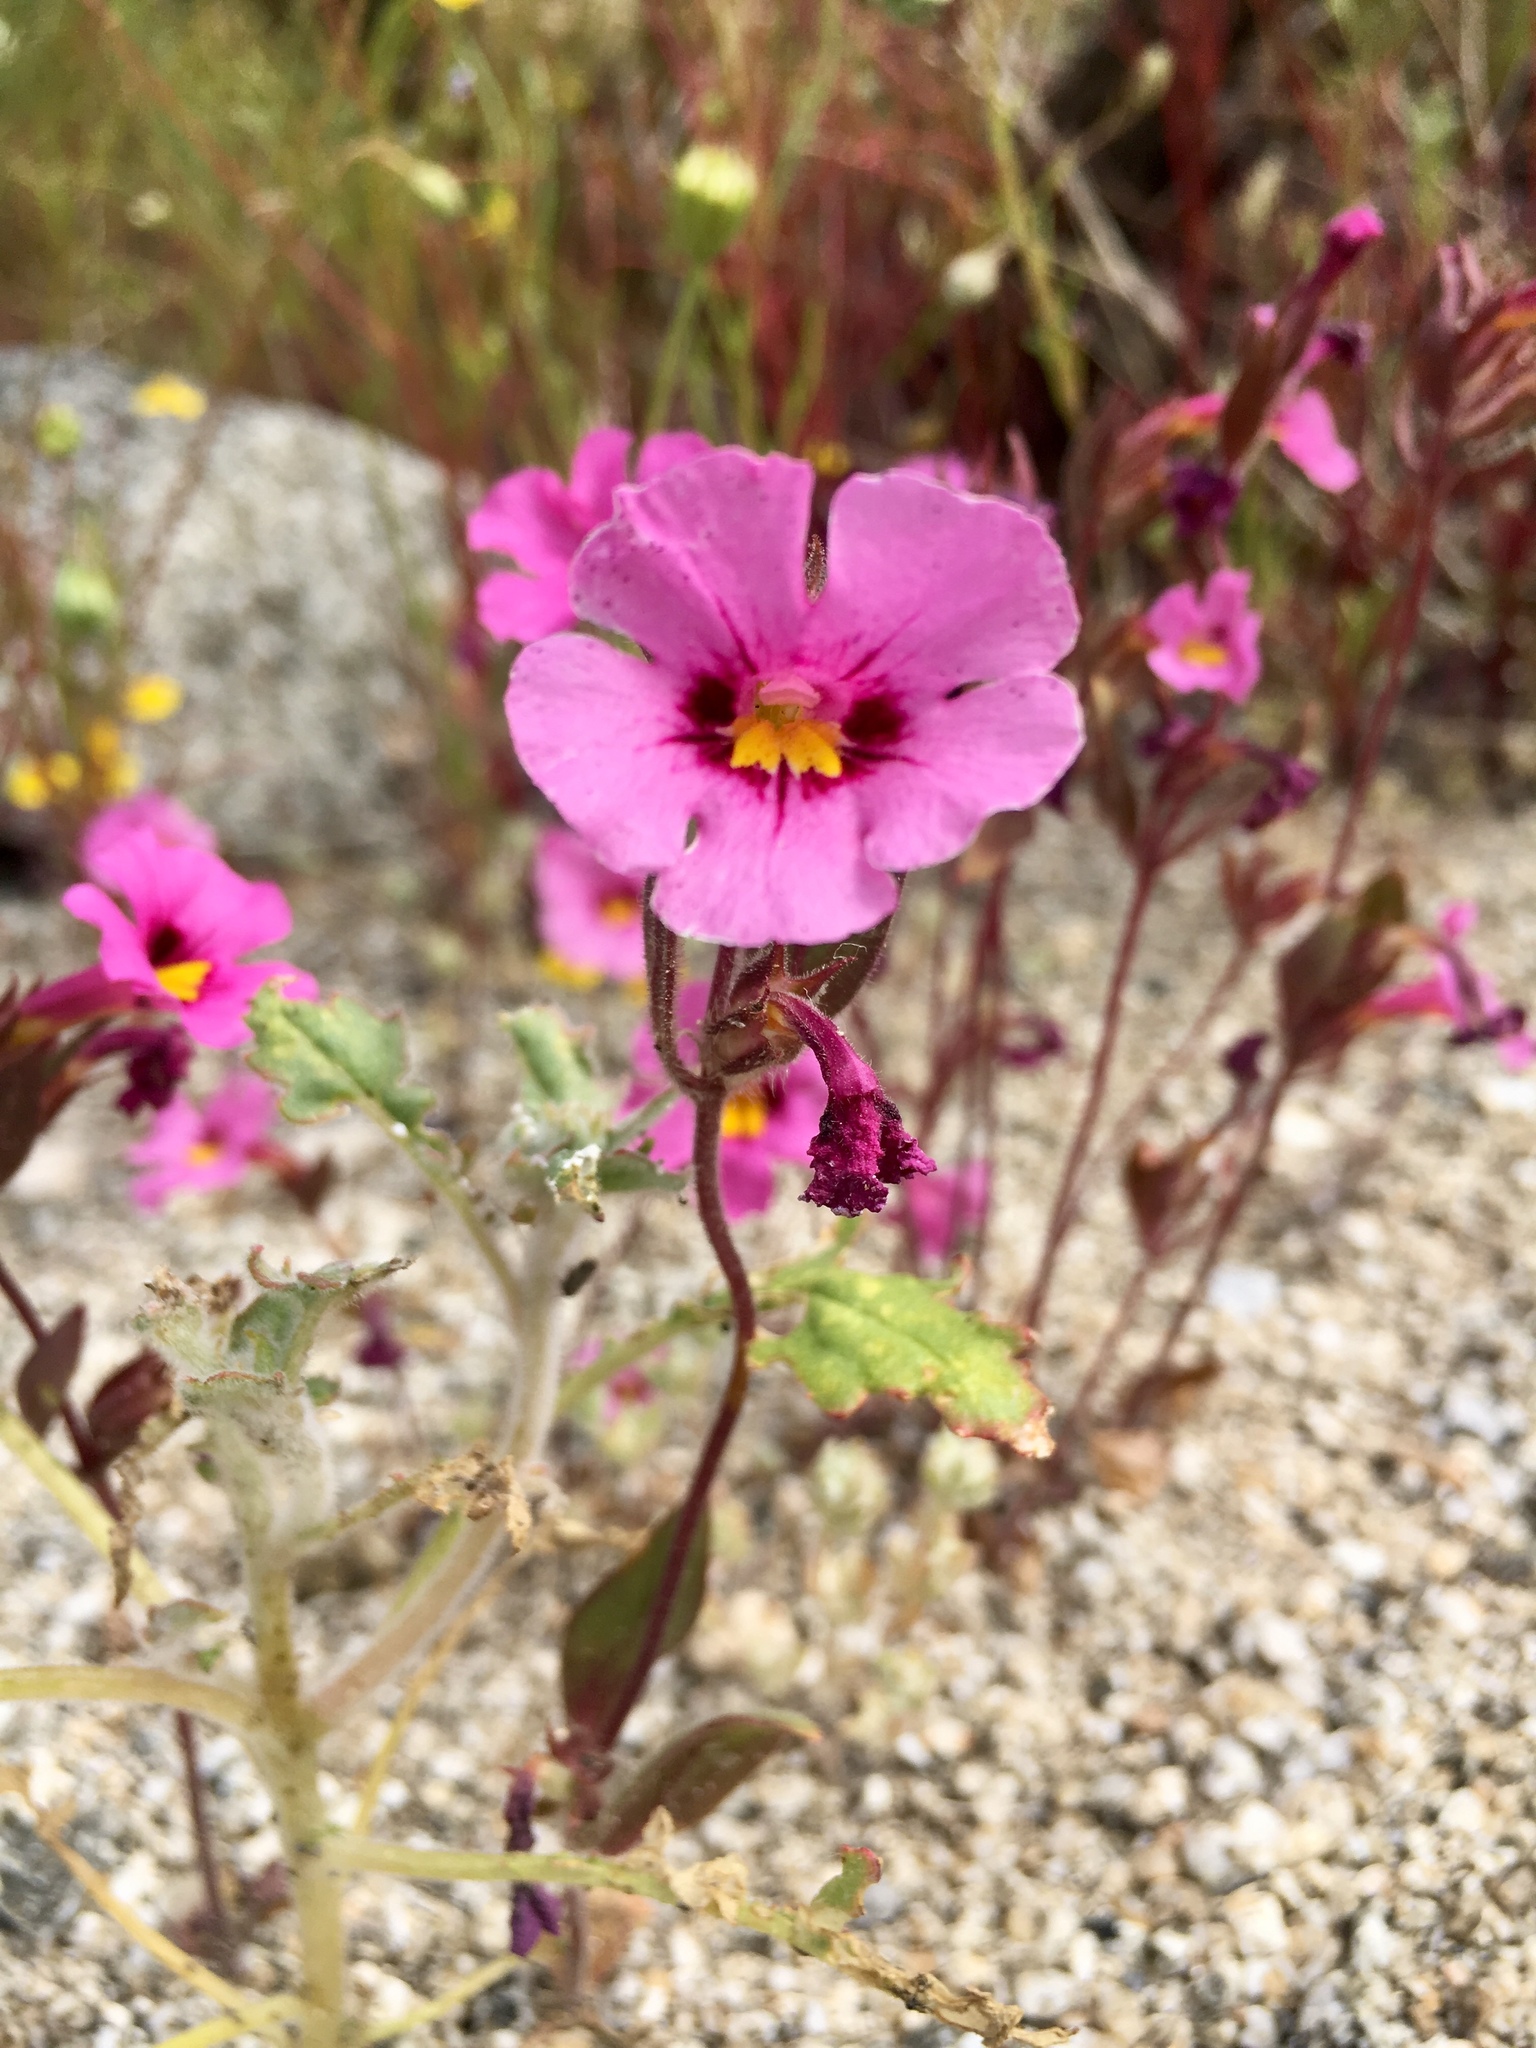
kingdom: Plantae
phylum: Tracheophyta
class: Magnoliopsida
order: Lamiales
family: Phrymaceae
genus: Diplacus
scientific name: Diplacus bigelovii
